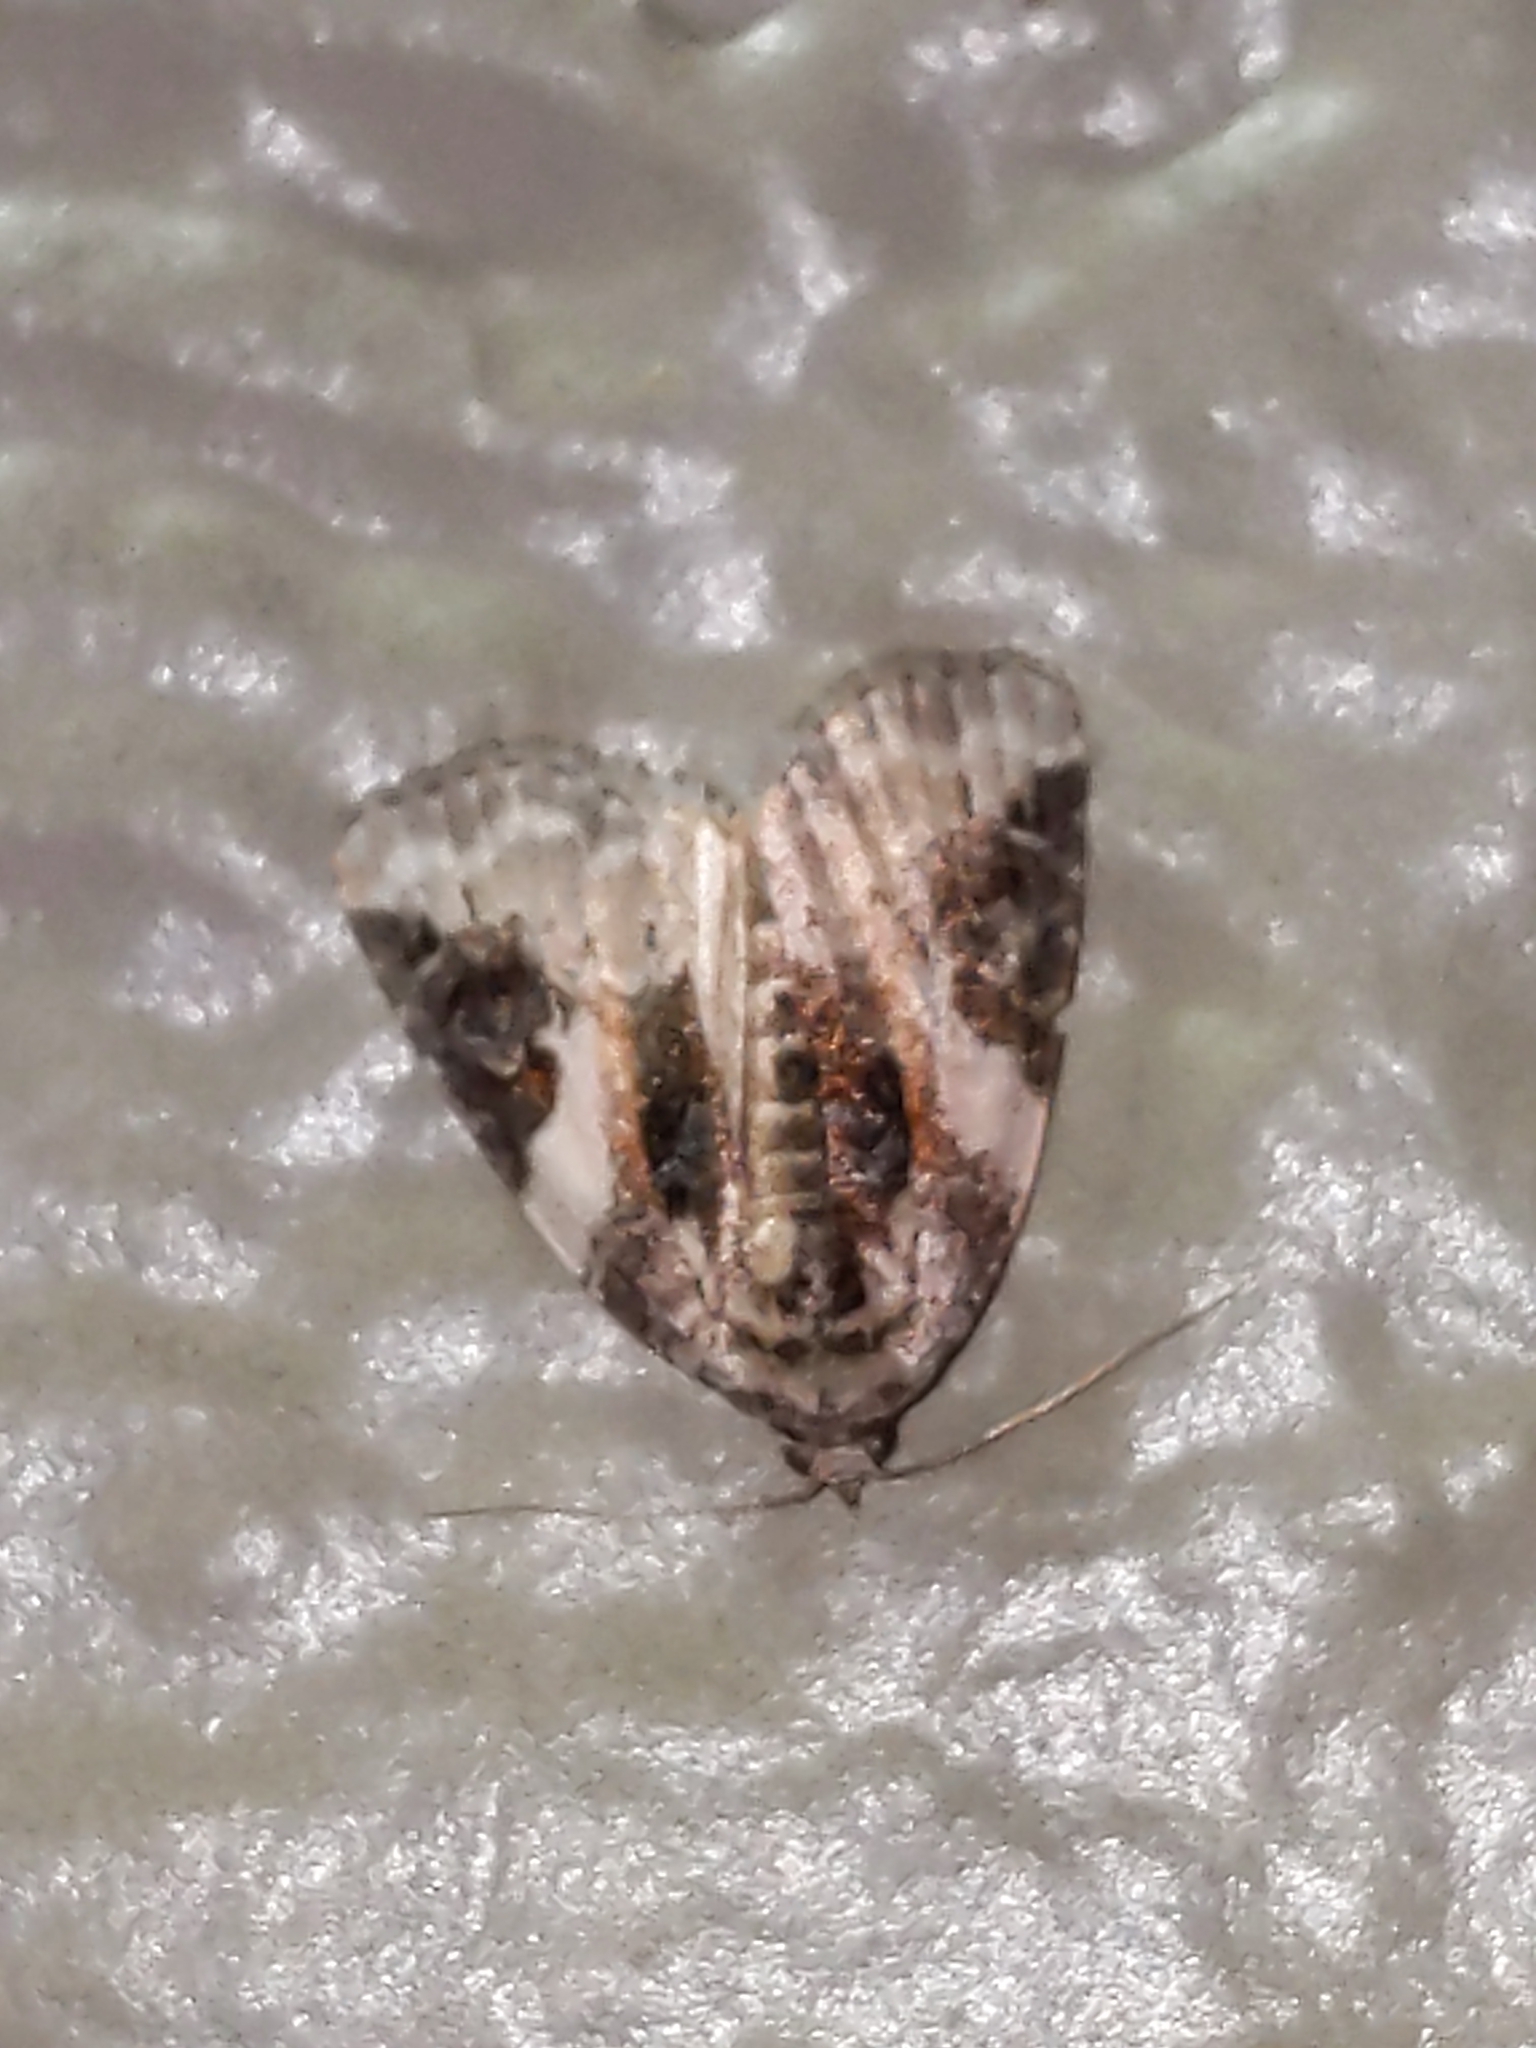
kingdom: Animalia
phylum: Arthropoda
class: Insecta
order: Lepidoptera
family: Noctuidae
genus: Pseudeustrotia
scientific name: Pseudeustrotia carneola
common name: Pink-barred lithacodia moth
